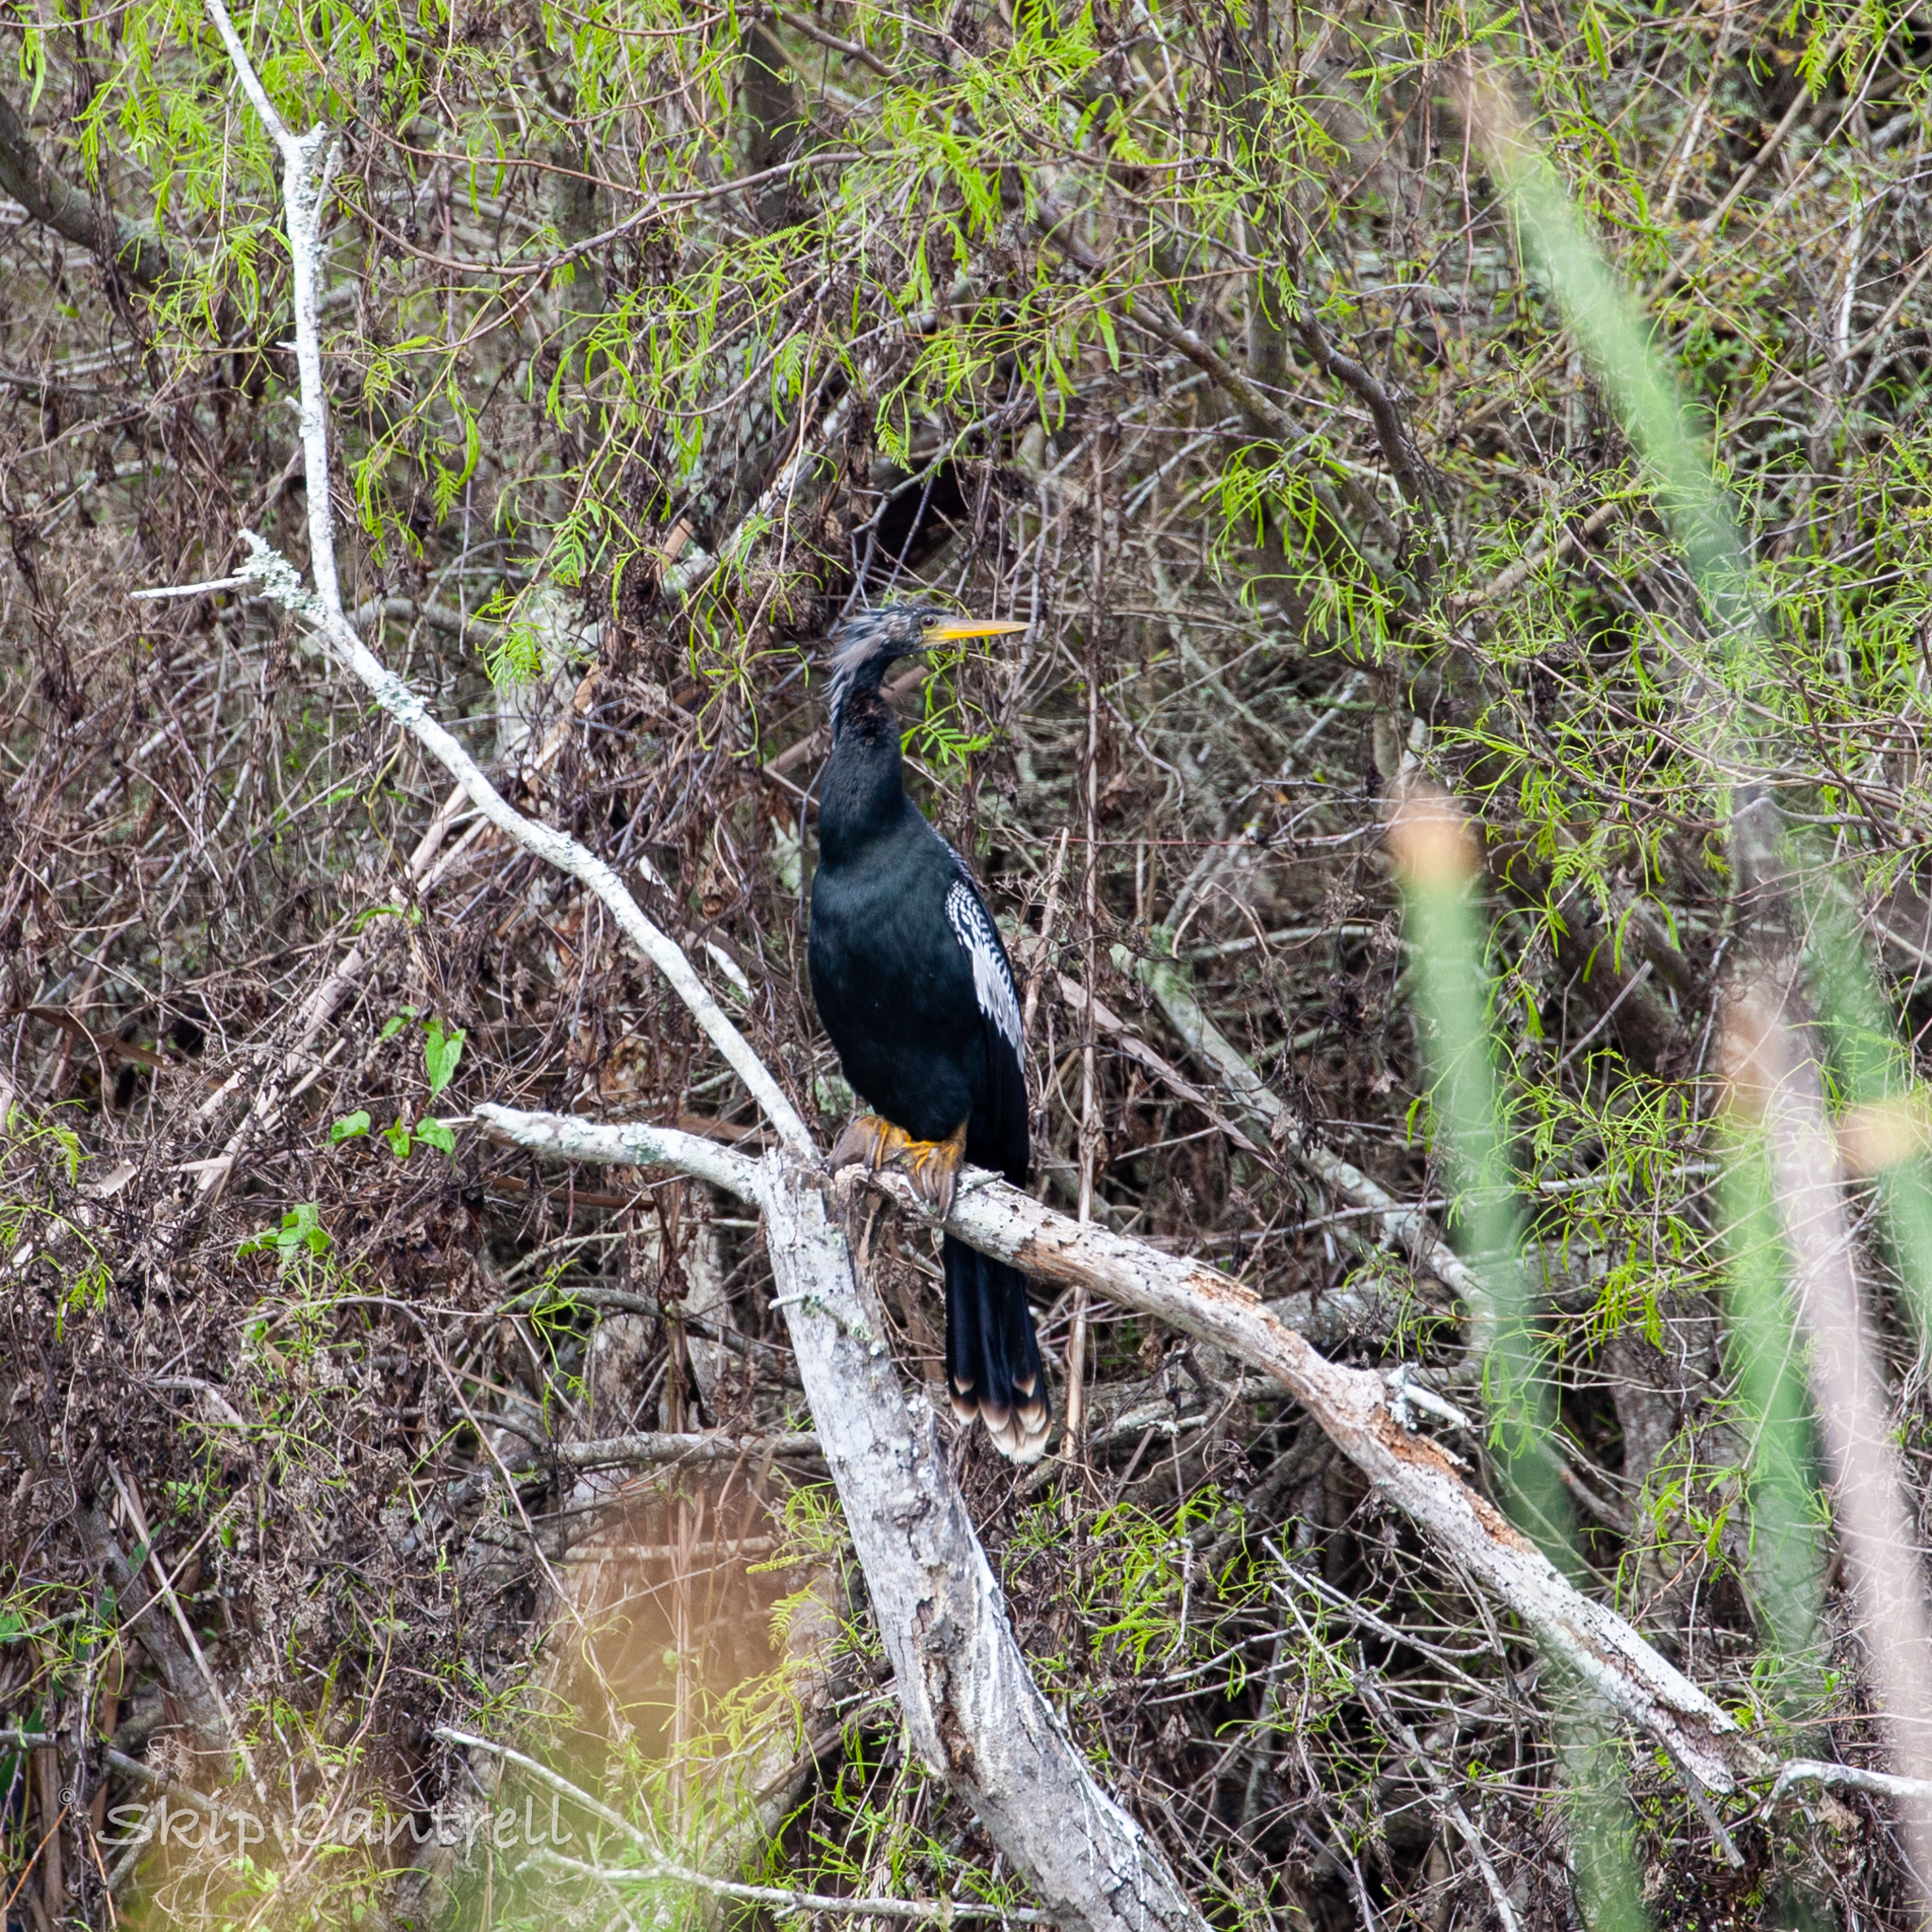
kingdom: Animalia
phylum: Chordata
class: Aves
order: Suliformes
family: Anhingidae
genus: Anhinga
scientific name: Anhinga anhinga
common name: Anhinga
